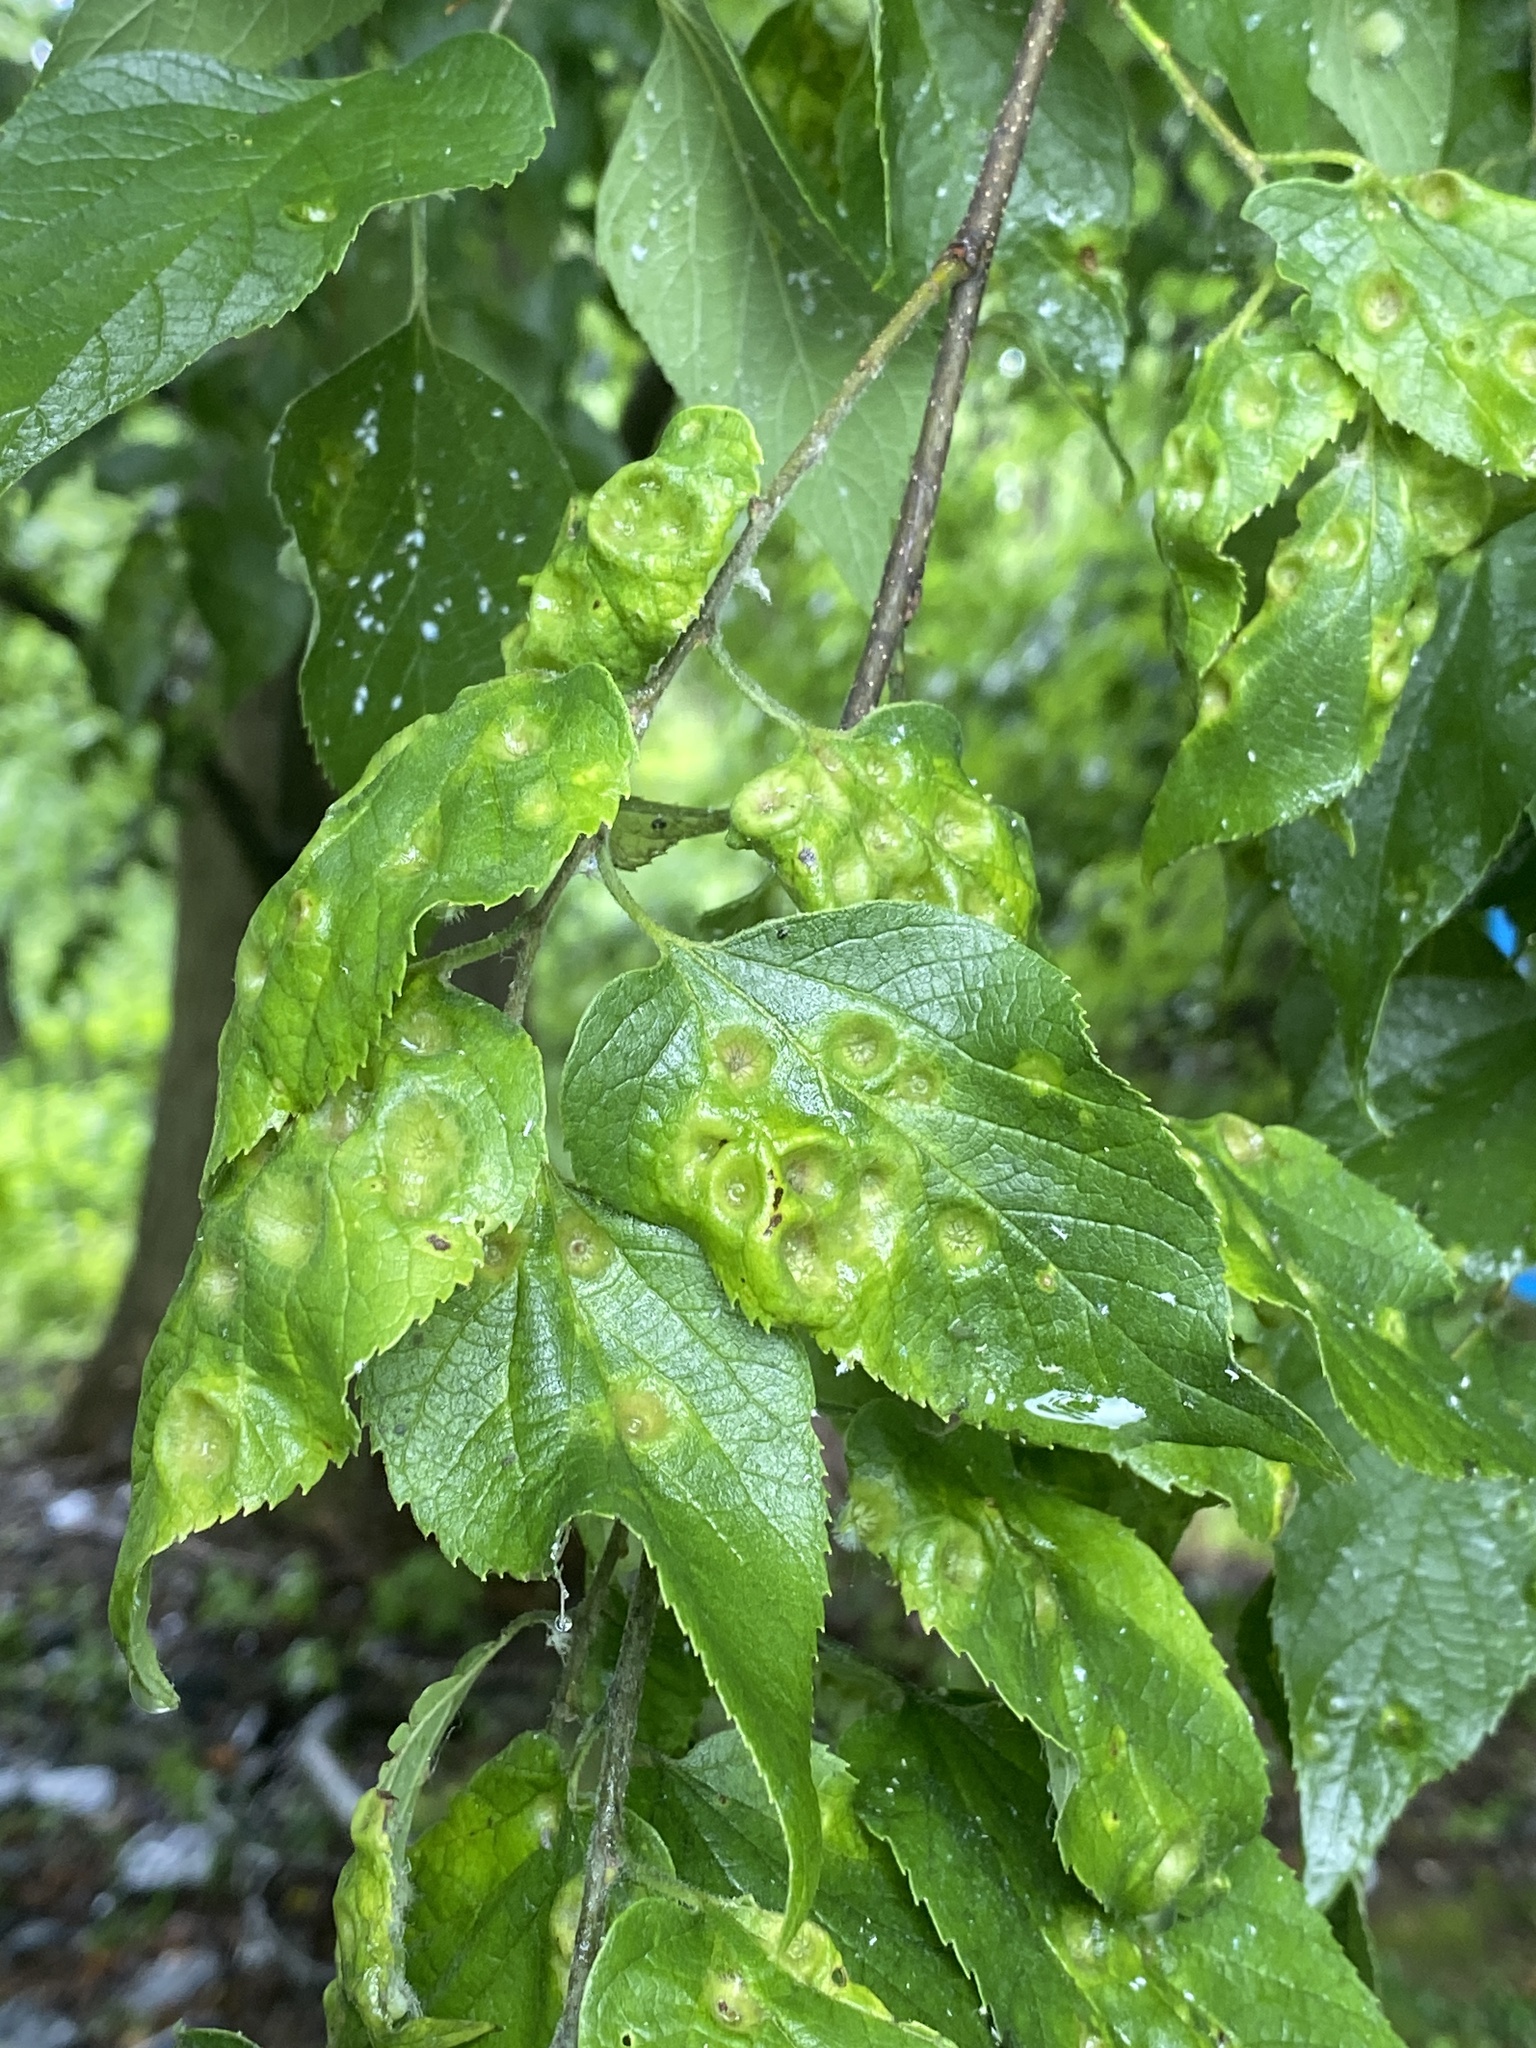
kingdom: Animalia
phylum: Arthropoda
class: Insecta
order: Hemiptera
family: Aphalaridae
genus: Pachypsylla
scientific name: Pachypsylla celtidismamma
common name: Hackberry nipplegall psyllid
